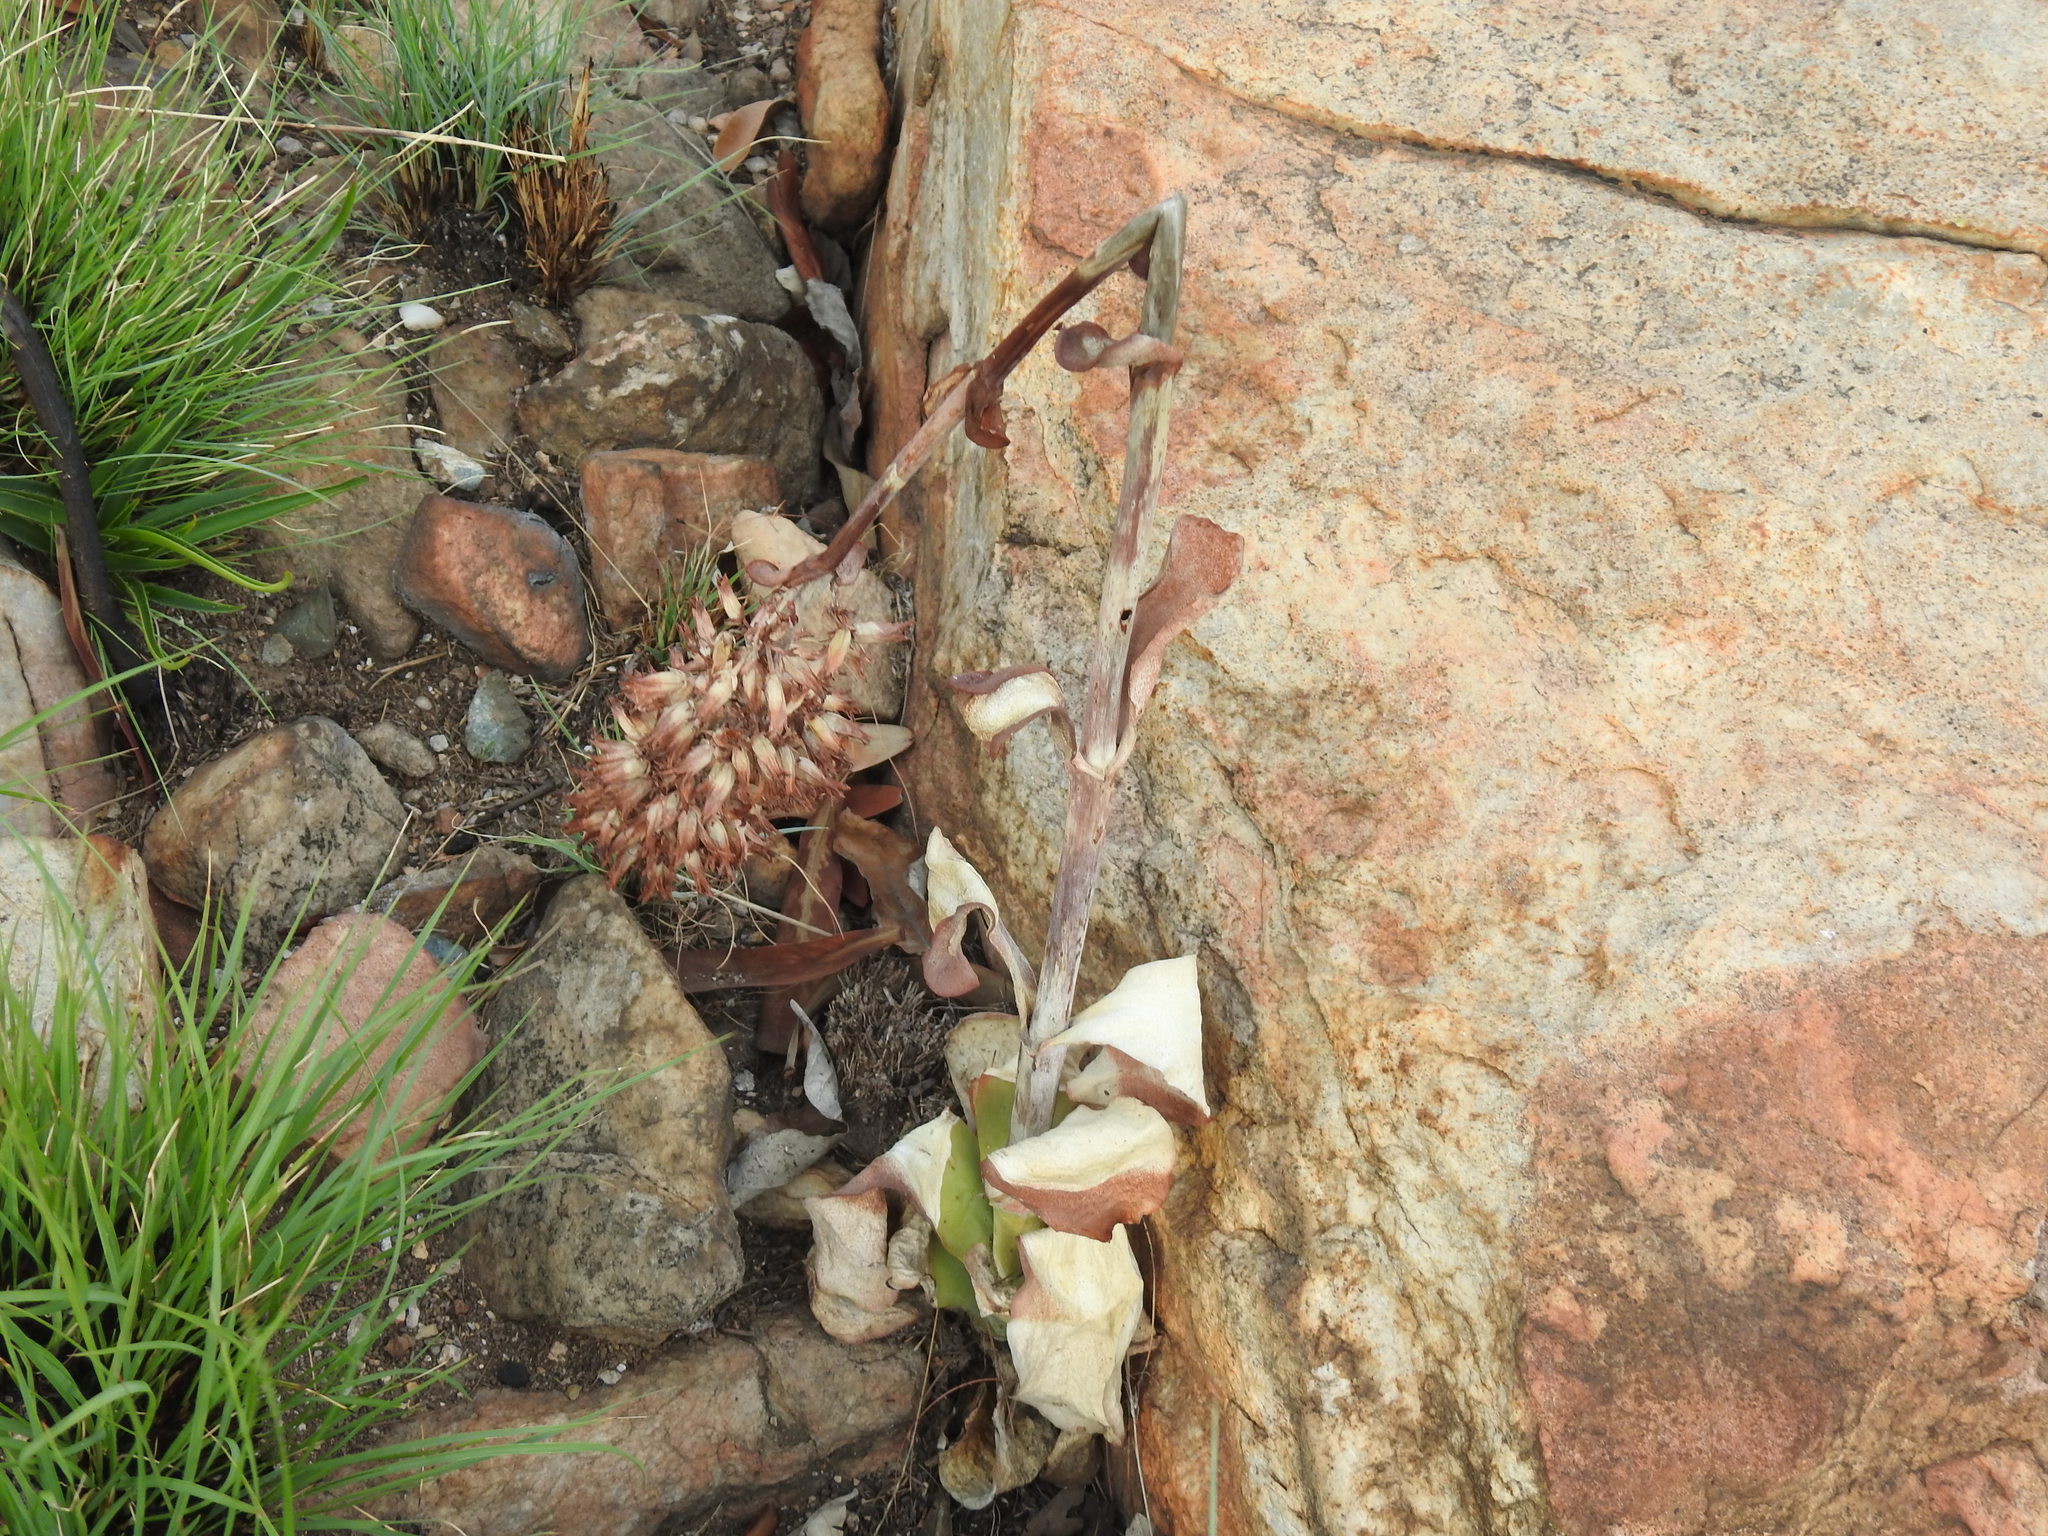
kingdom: Plantae
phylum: Tracheophyta
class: Magnoliopsida
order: Saxifragales
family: Crassulaceae
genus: Kalanchoe
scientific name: Kalanchoe thyrsiflora
